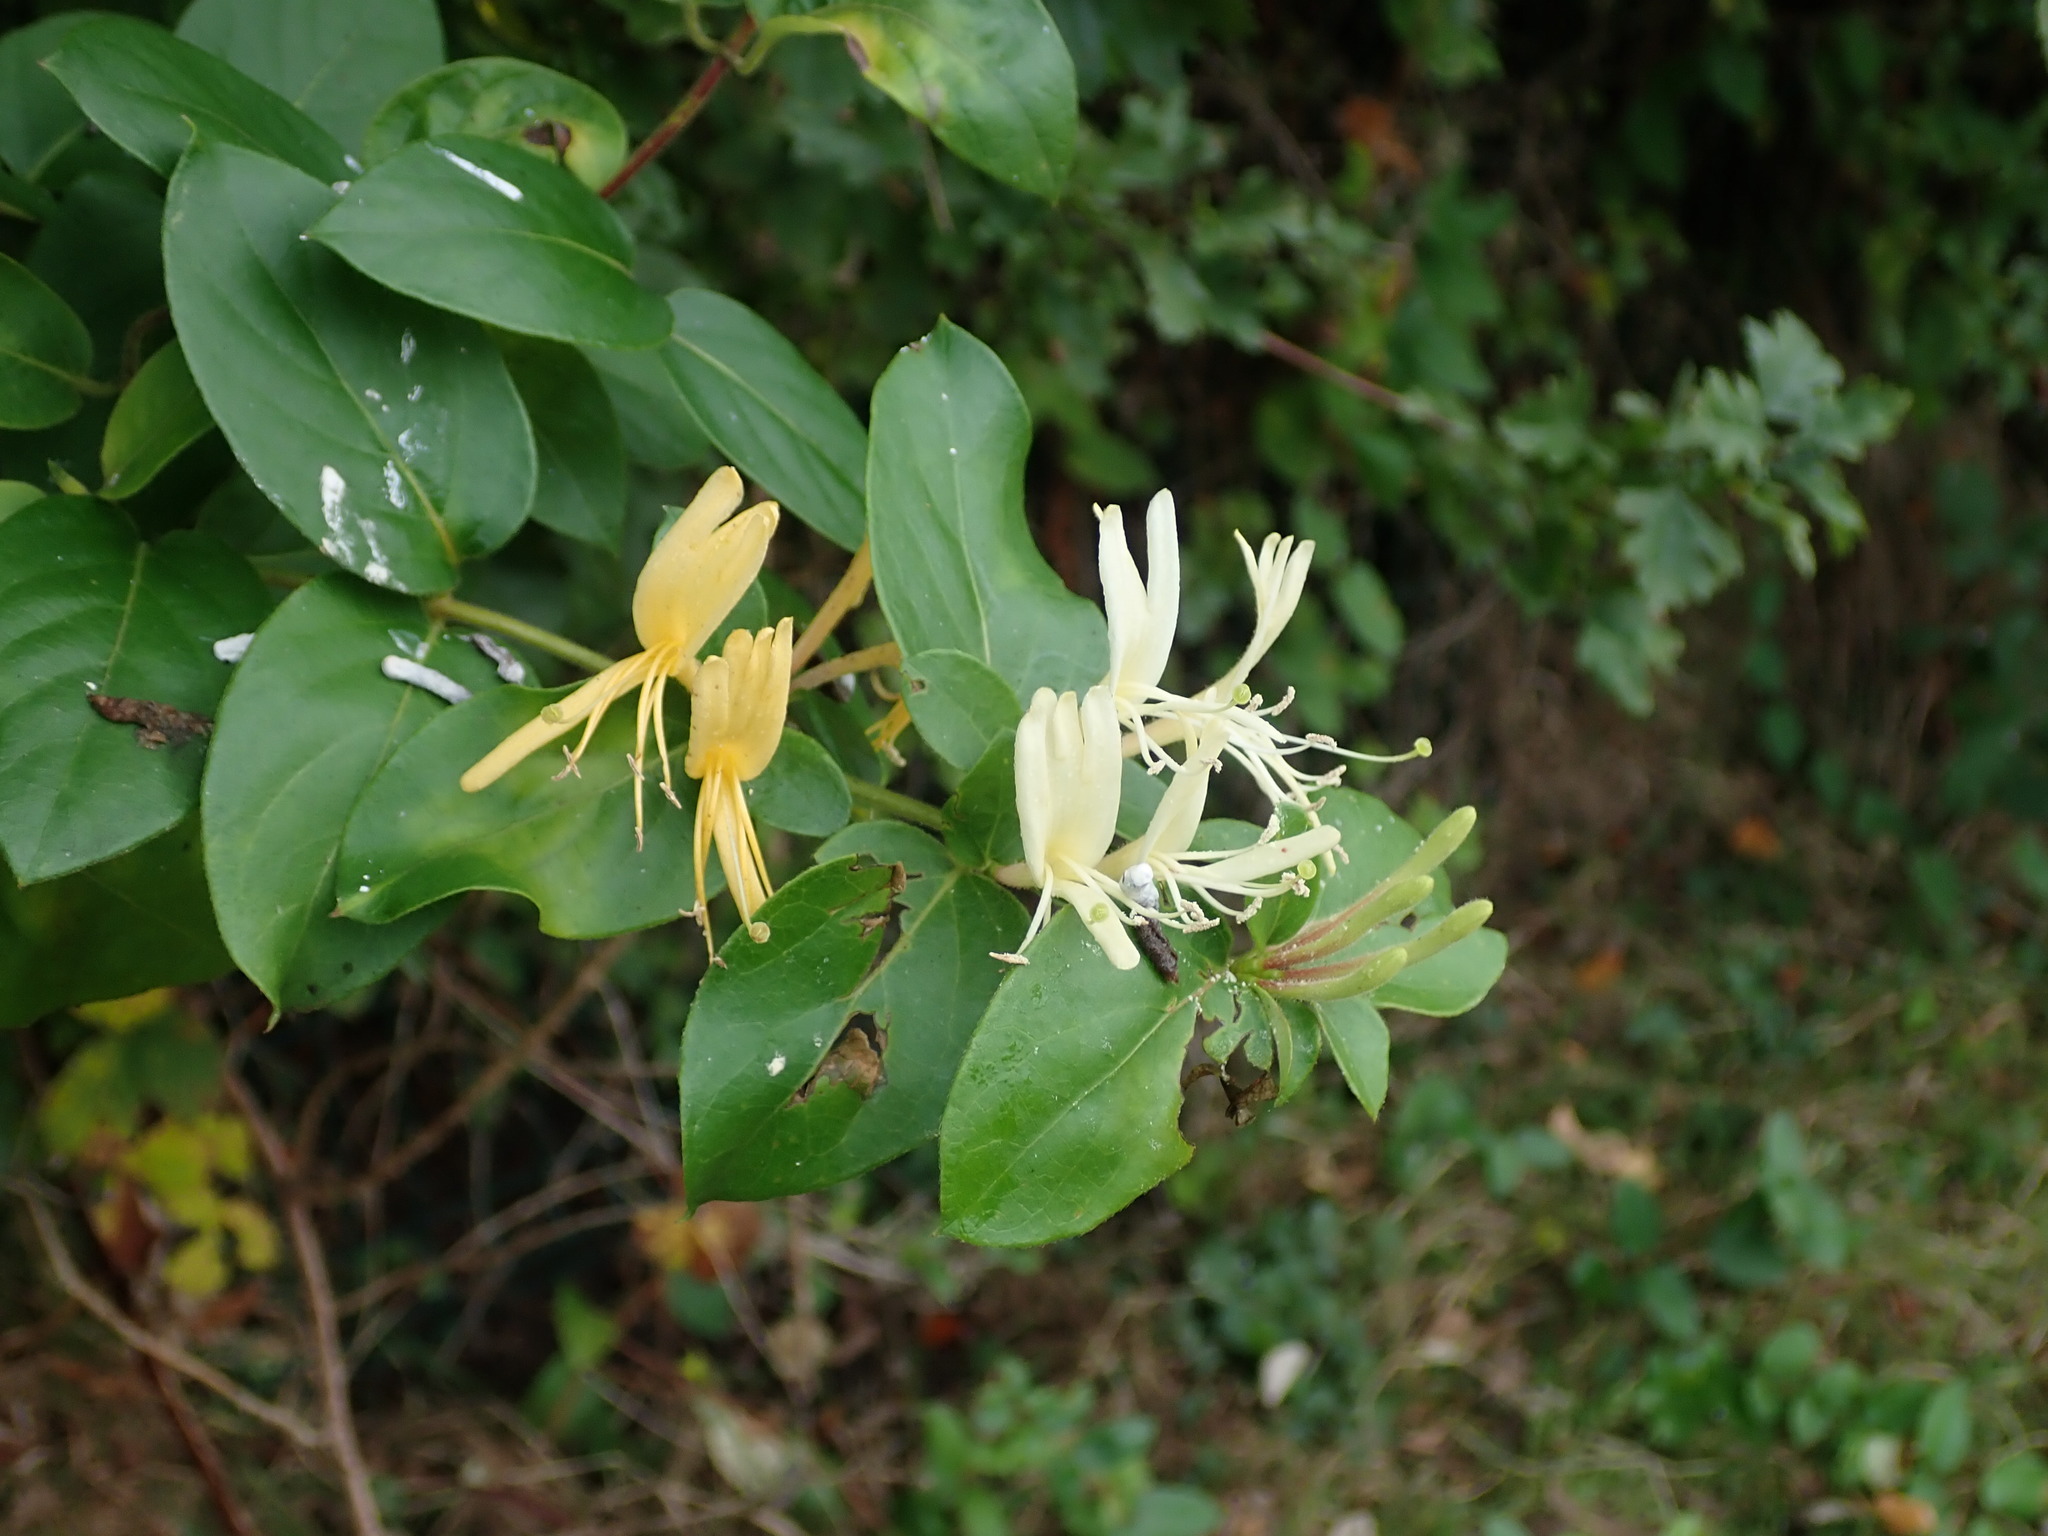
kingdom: Plantae
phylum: Tracheophyta
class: Magnoliopsida
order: Dipsacales
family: Caprifoliaceae
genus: Lonicera
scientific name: Lonicera japonica
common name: Japanese honeysuckle
